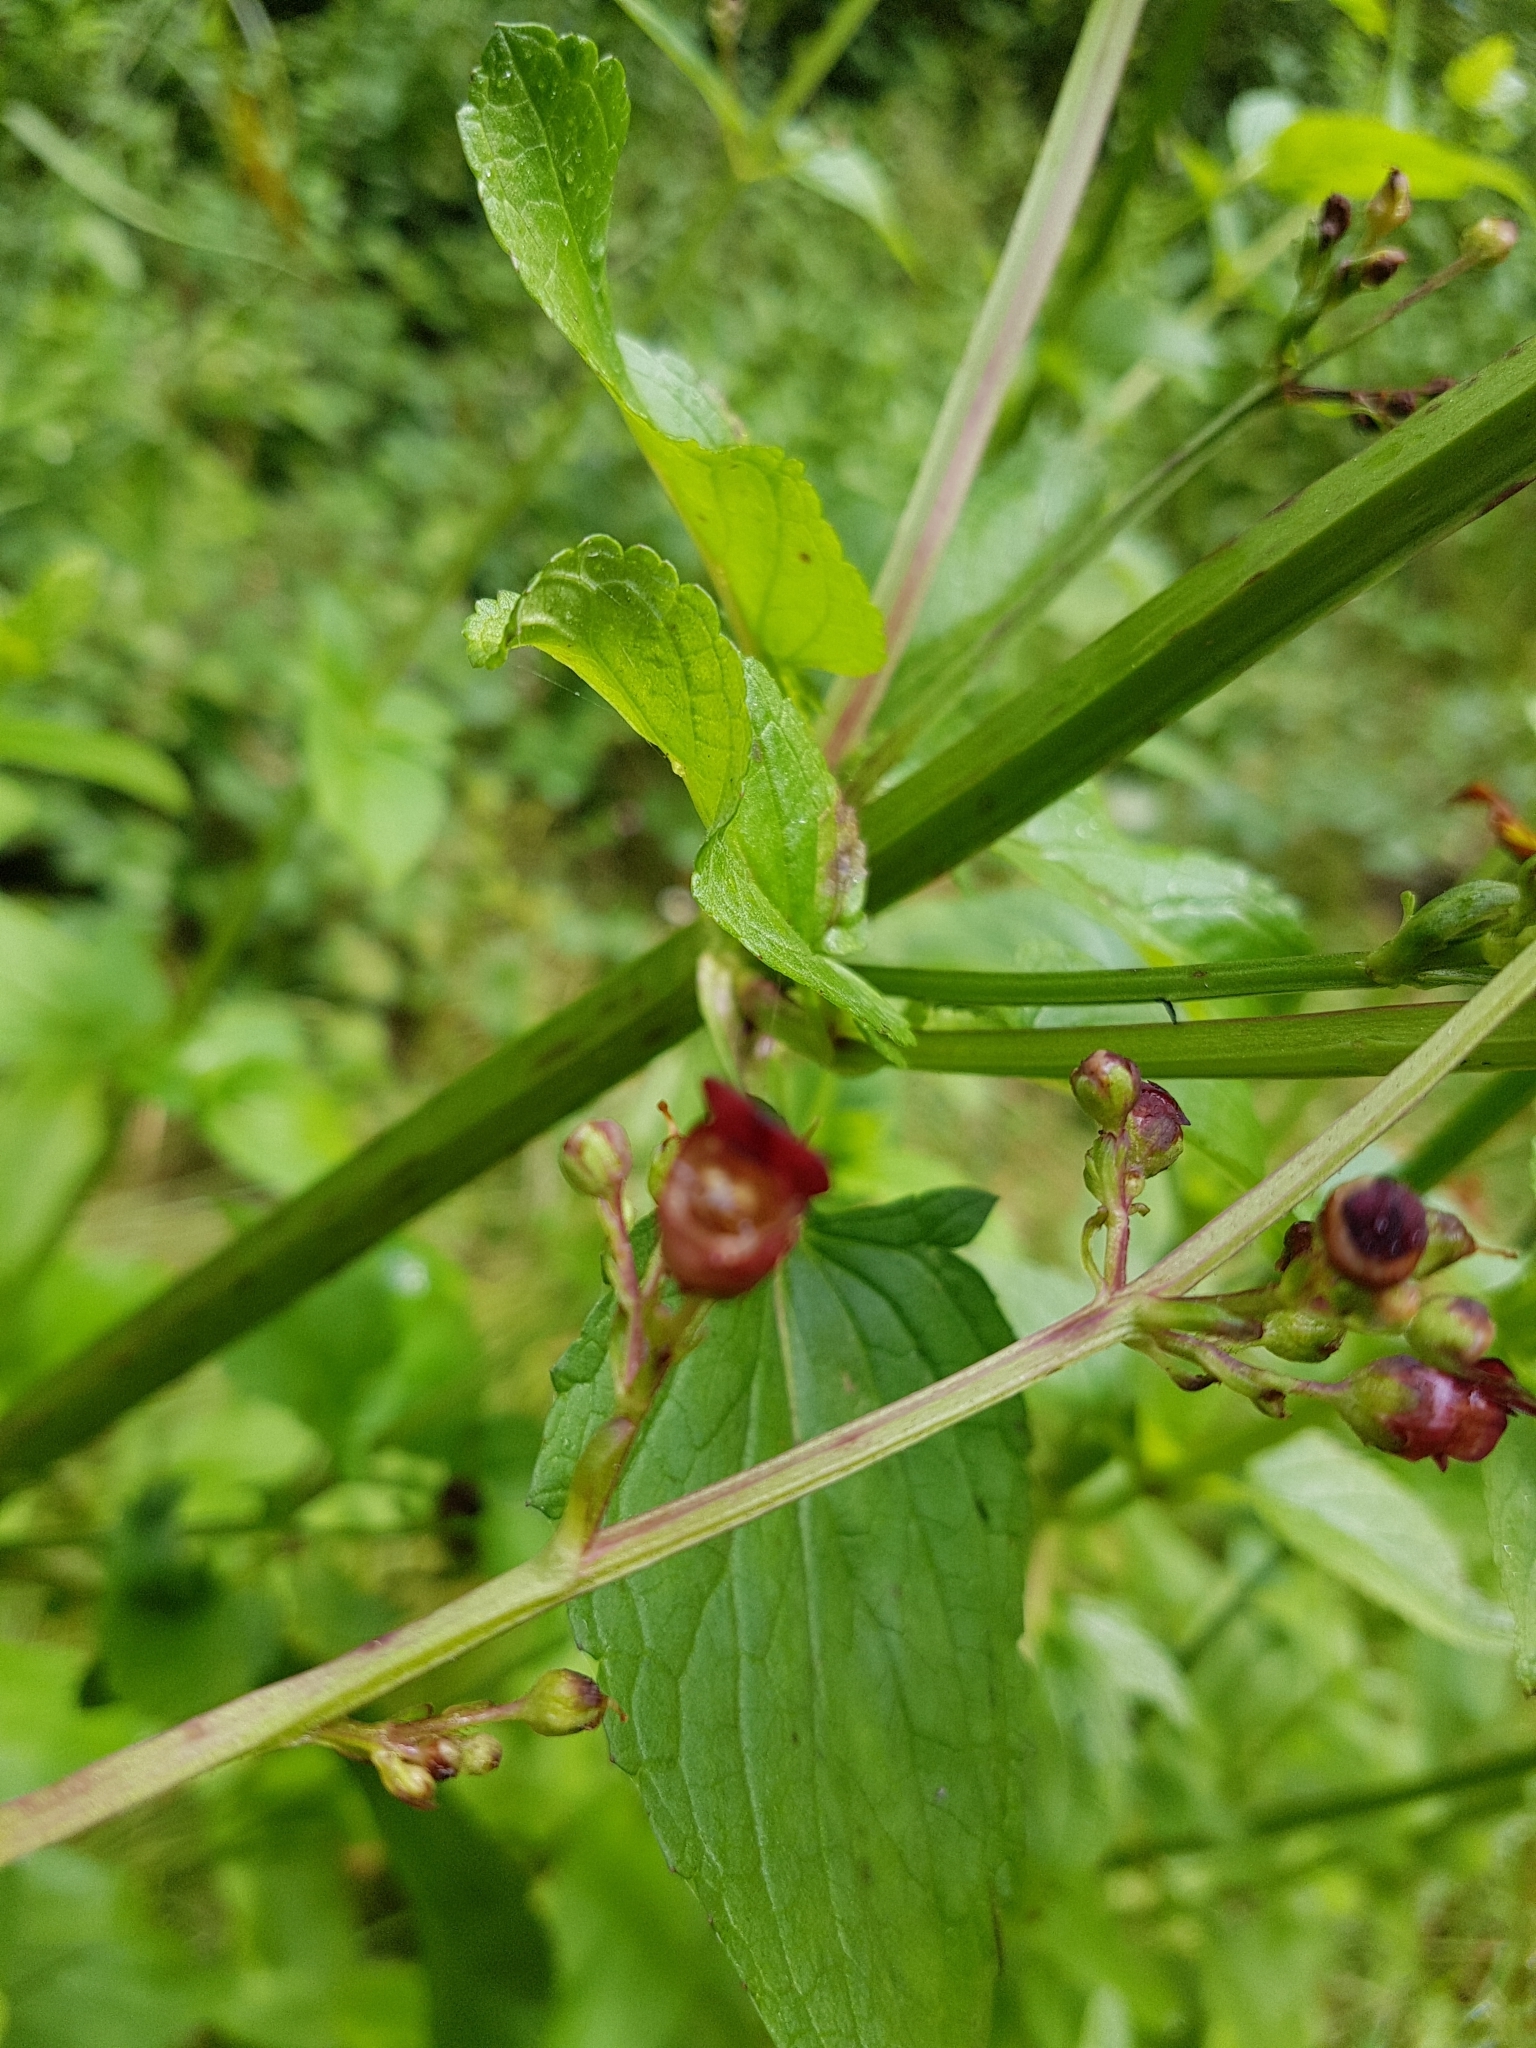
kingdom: Plantae
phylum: Tracheophyta
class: Magnoliopsida
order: Lamiales
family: Scrophulariaceae
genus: Scrophularia
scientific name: Scrophularia auriculata
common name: Water betony
